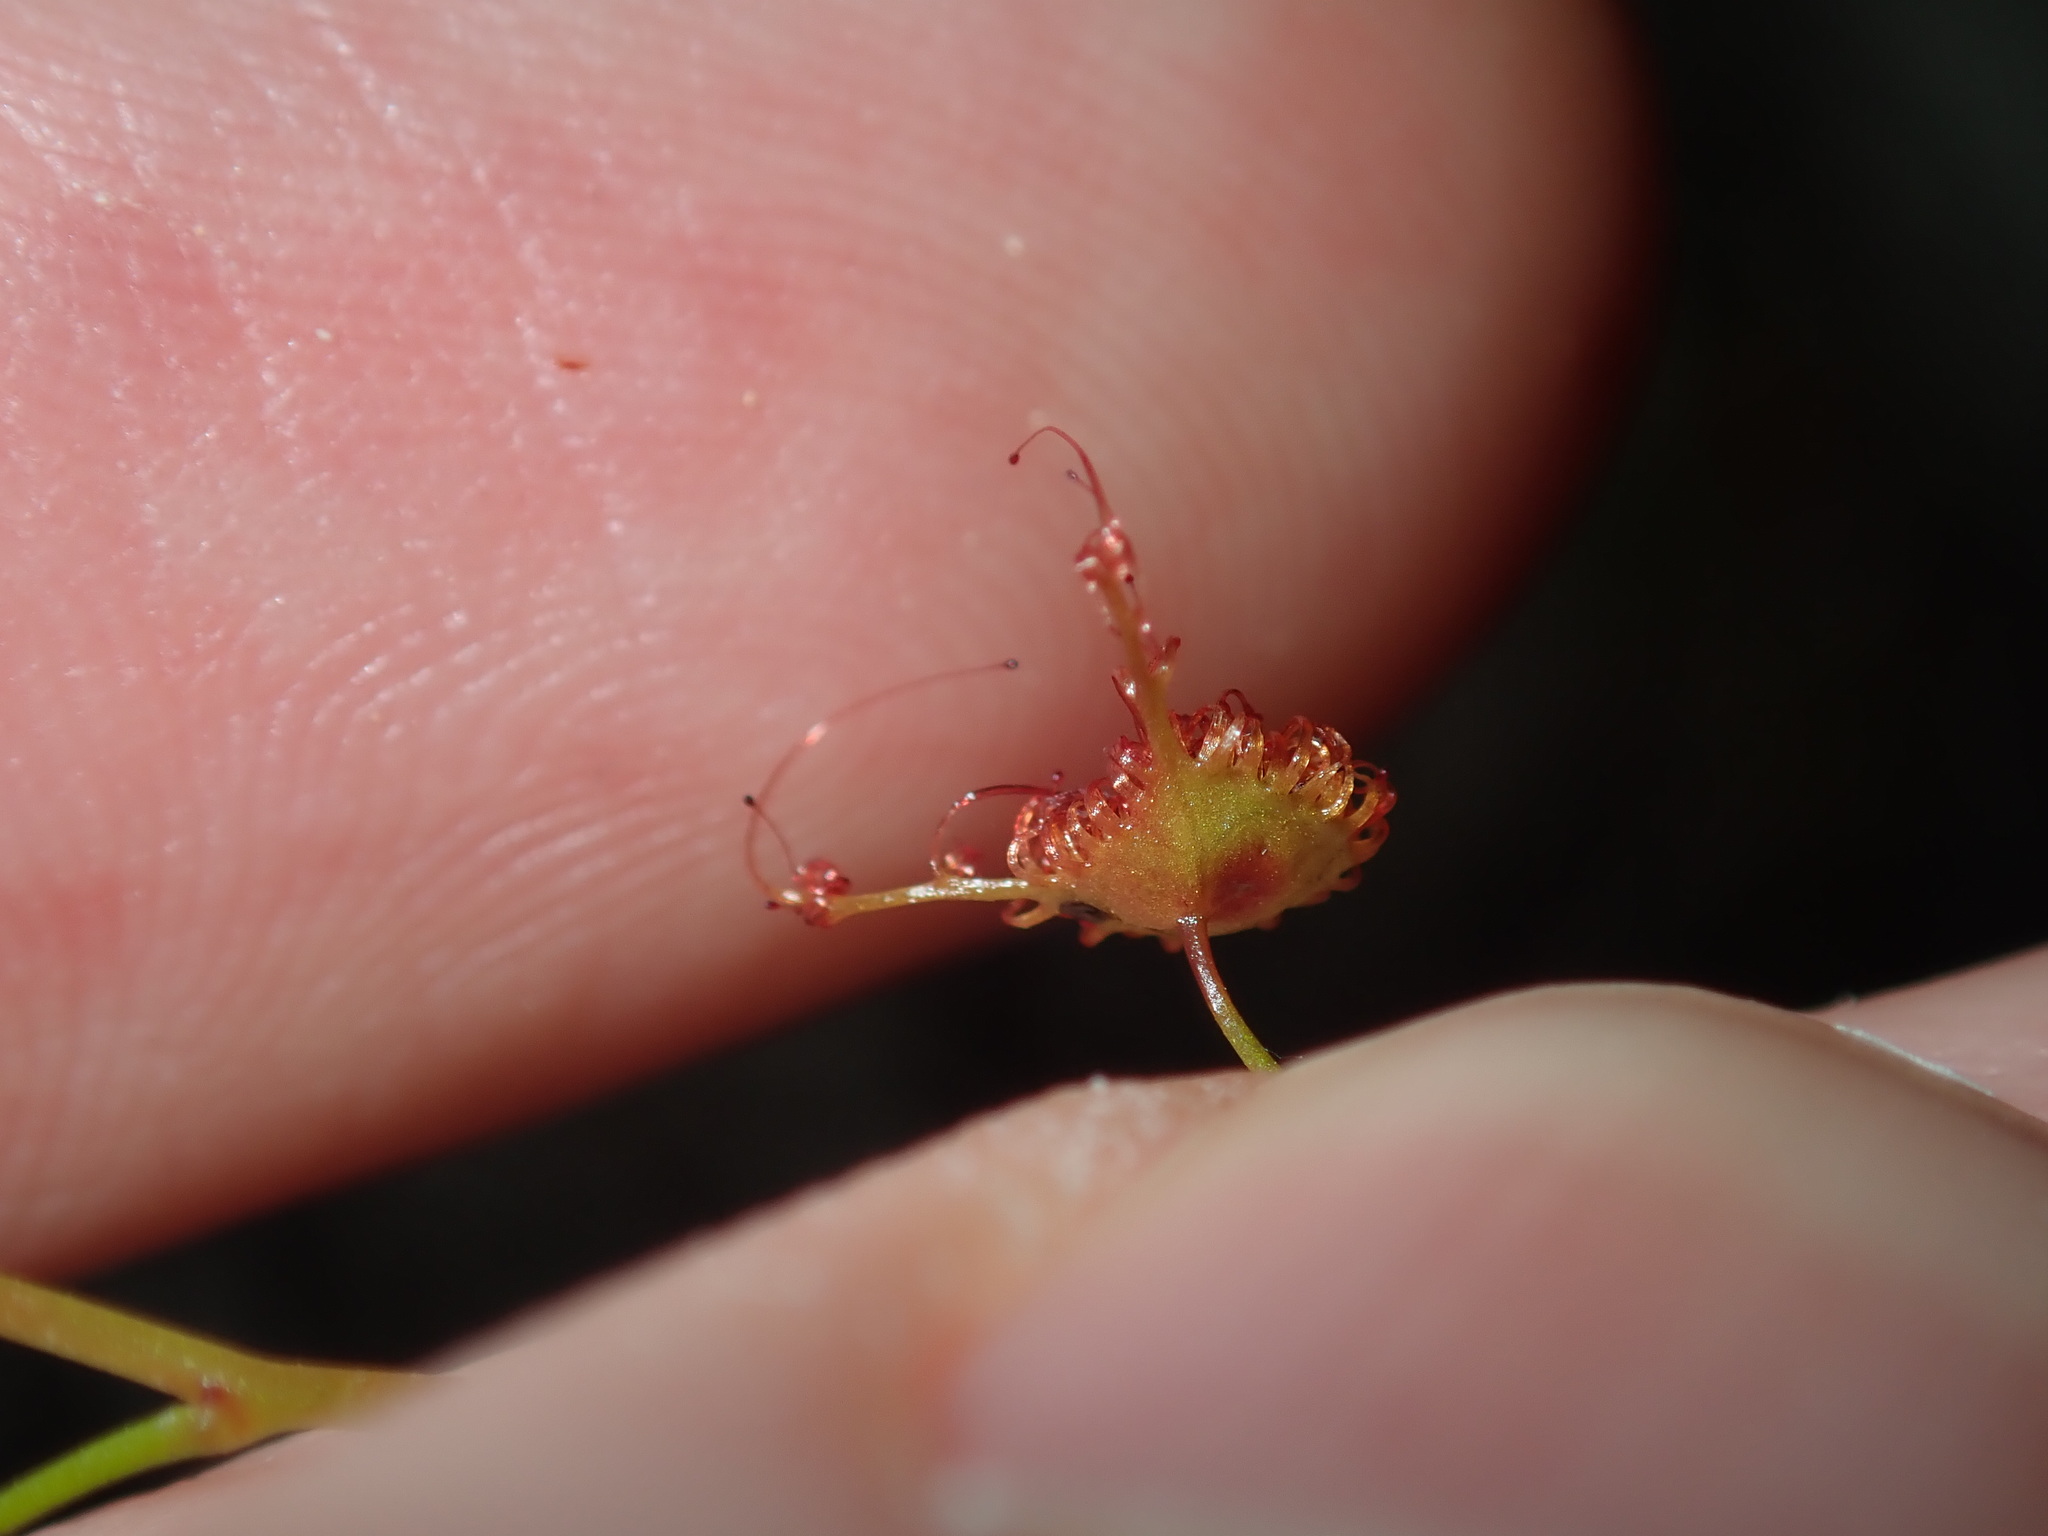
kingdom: Plantae
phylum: Tracheophyta
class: Magnoliopsida
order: Caryophyllales
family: Droseraceae
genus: Drosera
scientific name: Drosera peltata
